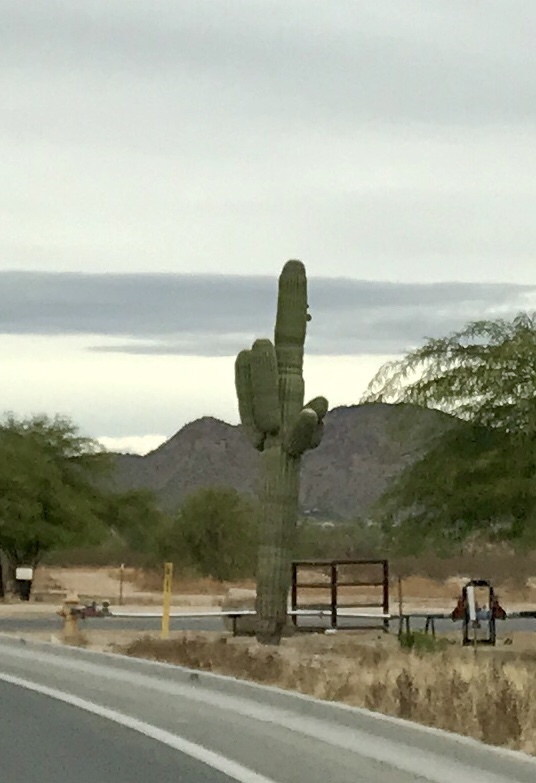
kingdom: Plantae
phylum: Tracheophyta
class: Magnoliopsida
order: Caryophyllales
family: Cactaceae
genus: Carnegiea
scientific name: Carnegiea gigantea
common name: Saguaro
